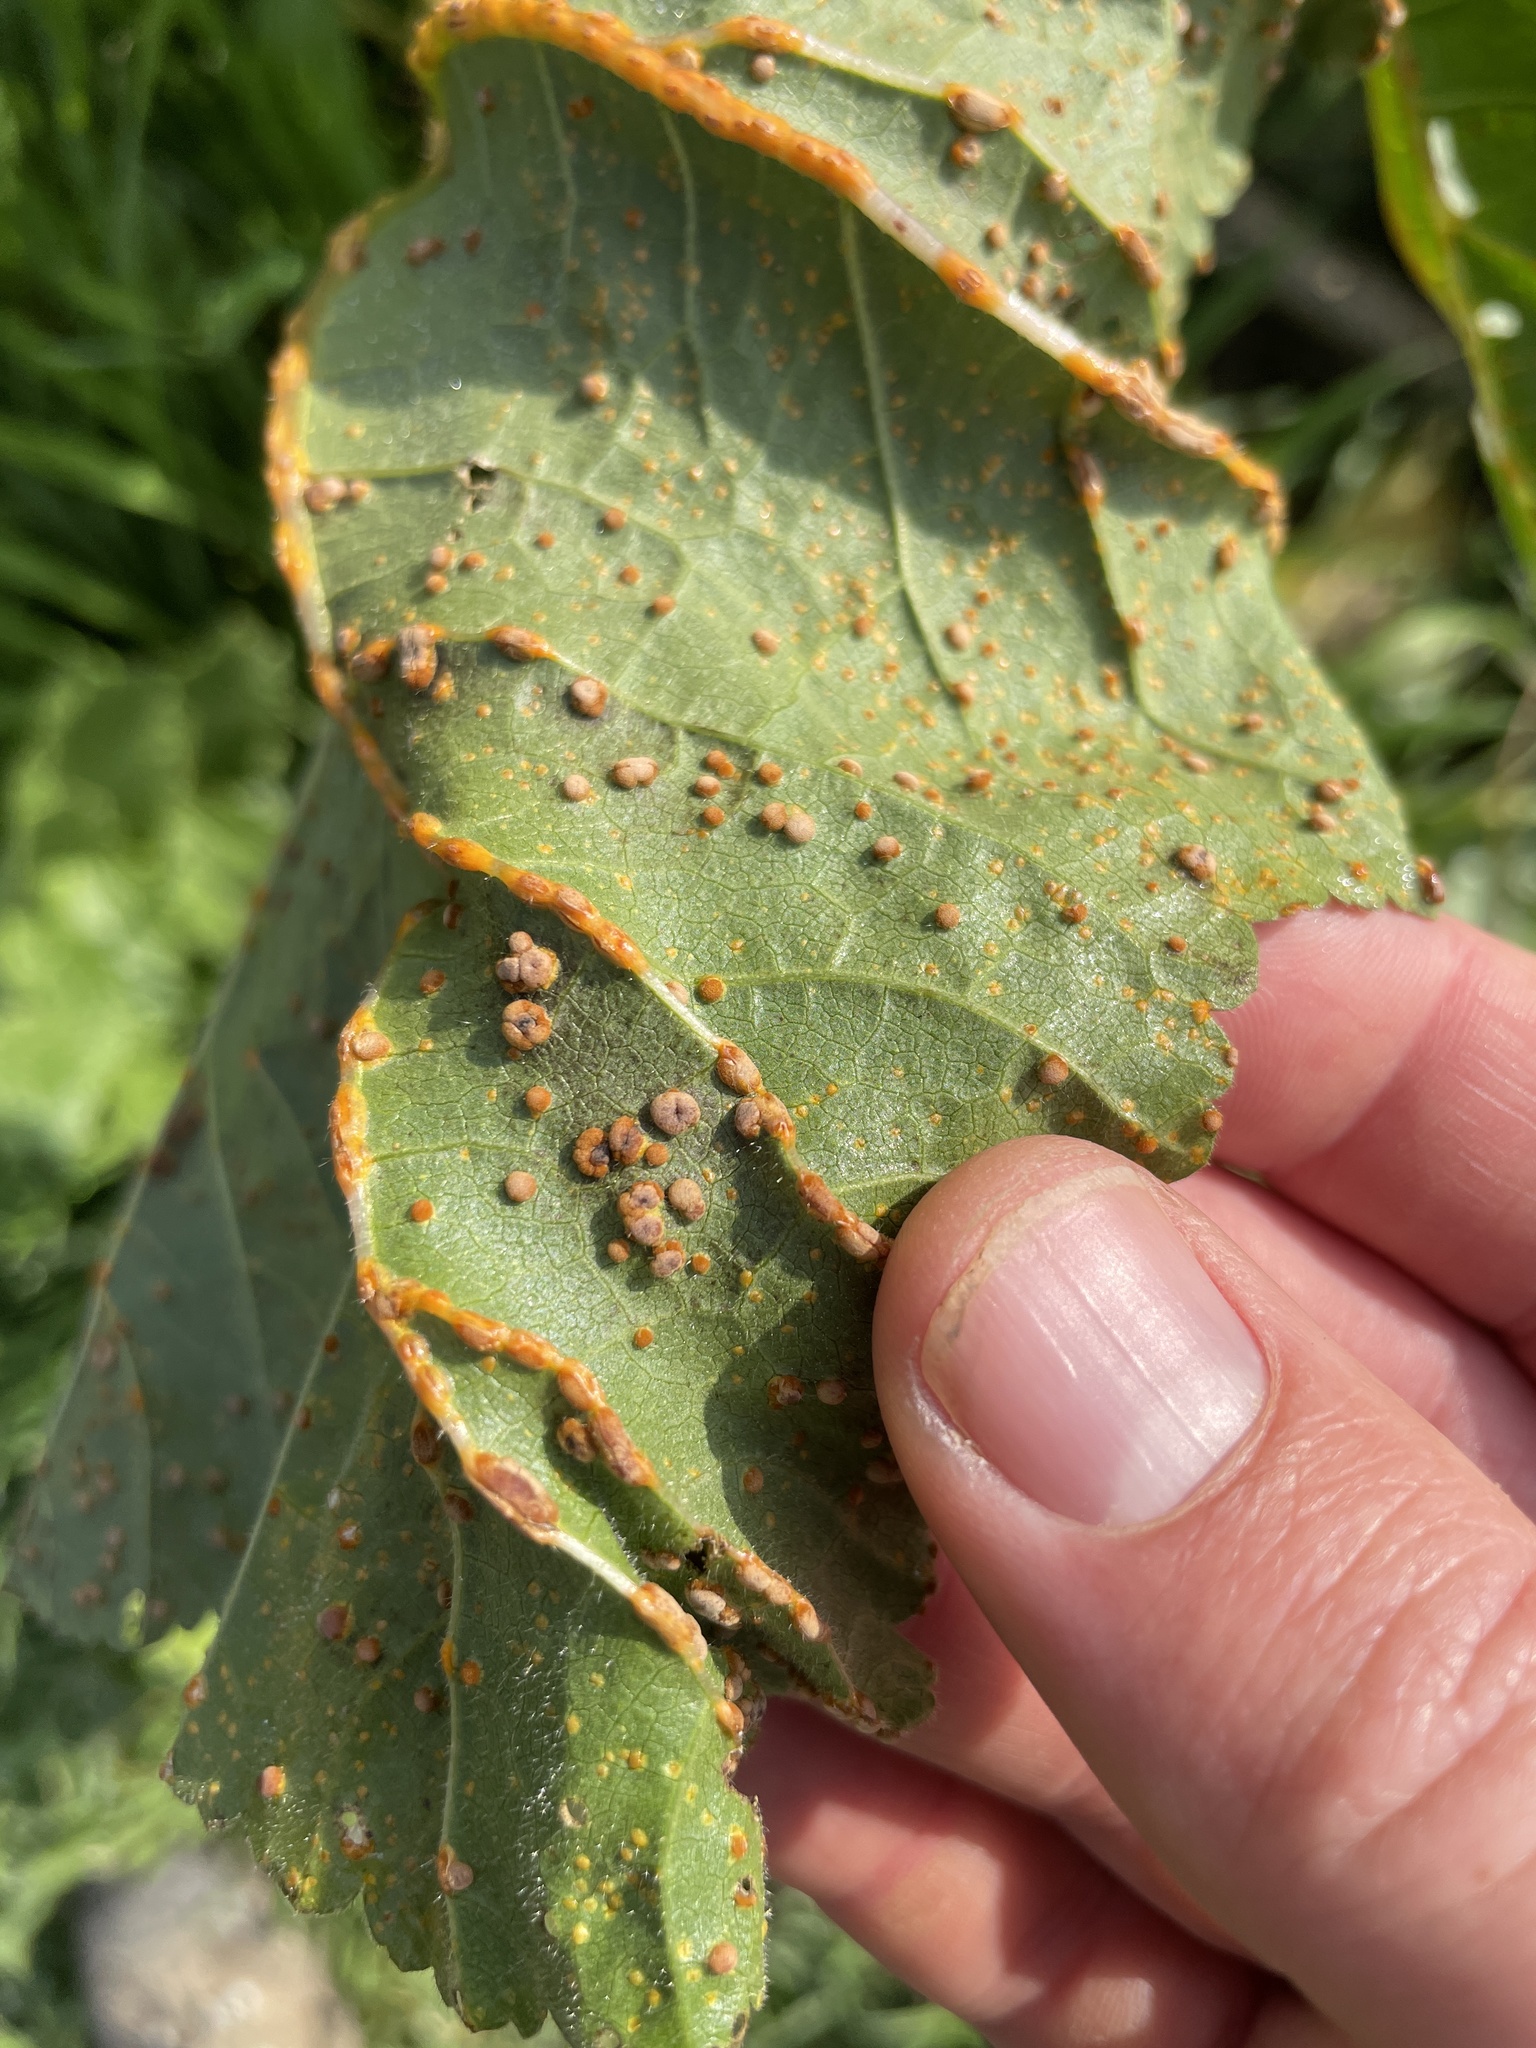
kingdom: Fungi
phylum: Basidiomycota
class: Pucciniomycetes
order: Pucciniales
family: Pucciniaceae
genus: Puccinia
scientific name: Puccinia malvacearum
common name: Hollyhock rust
